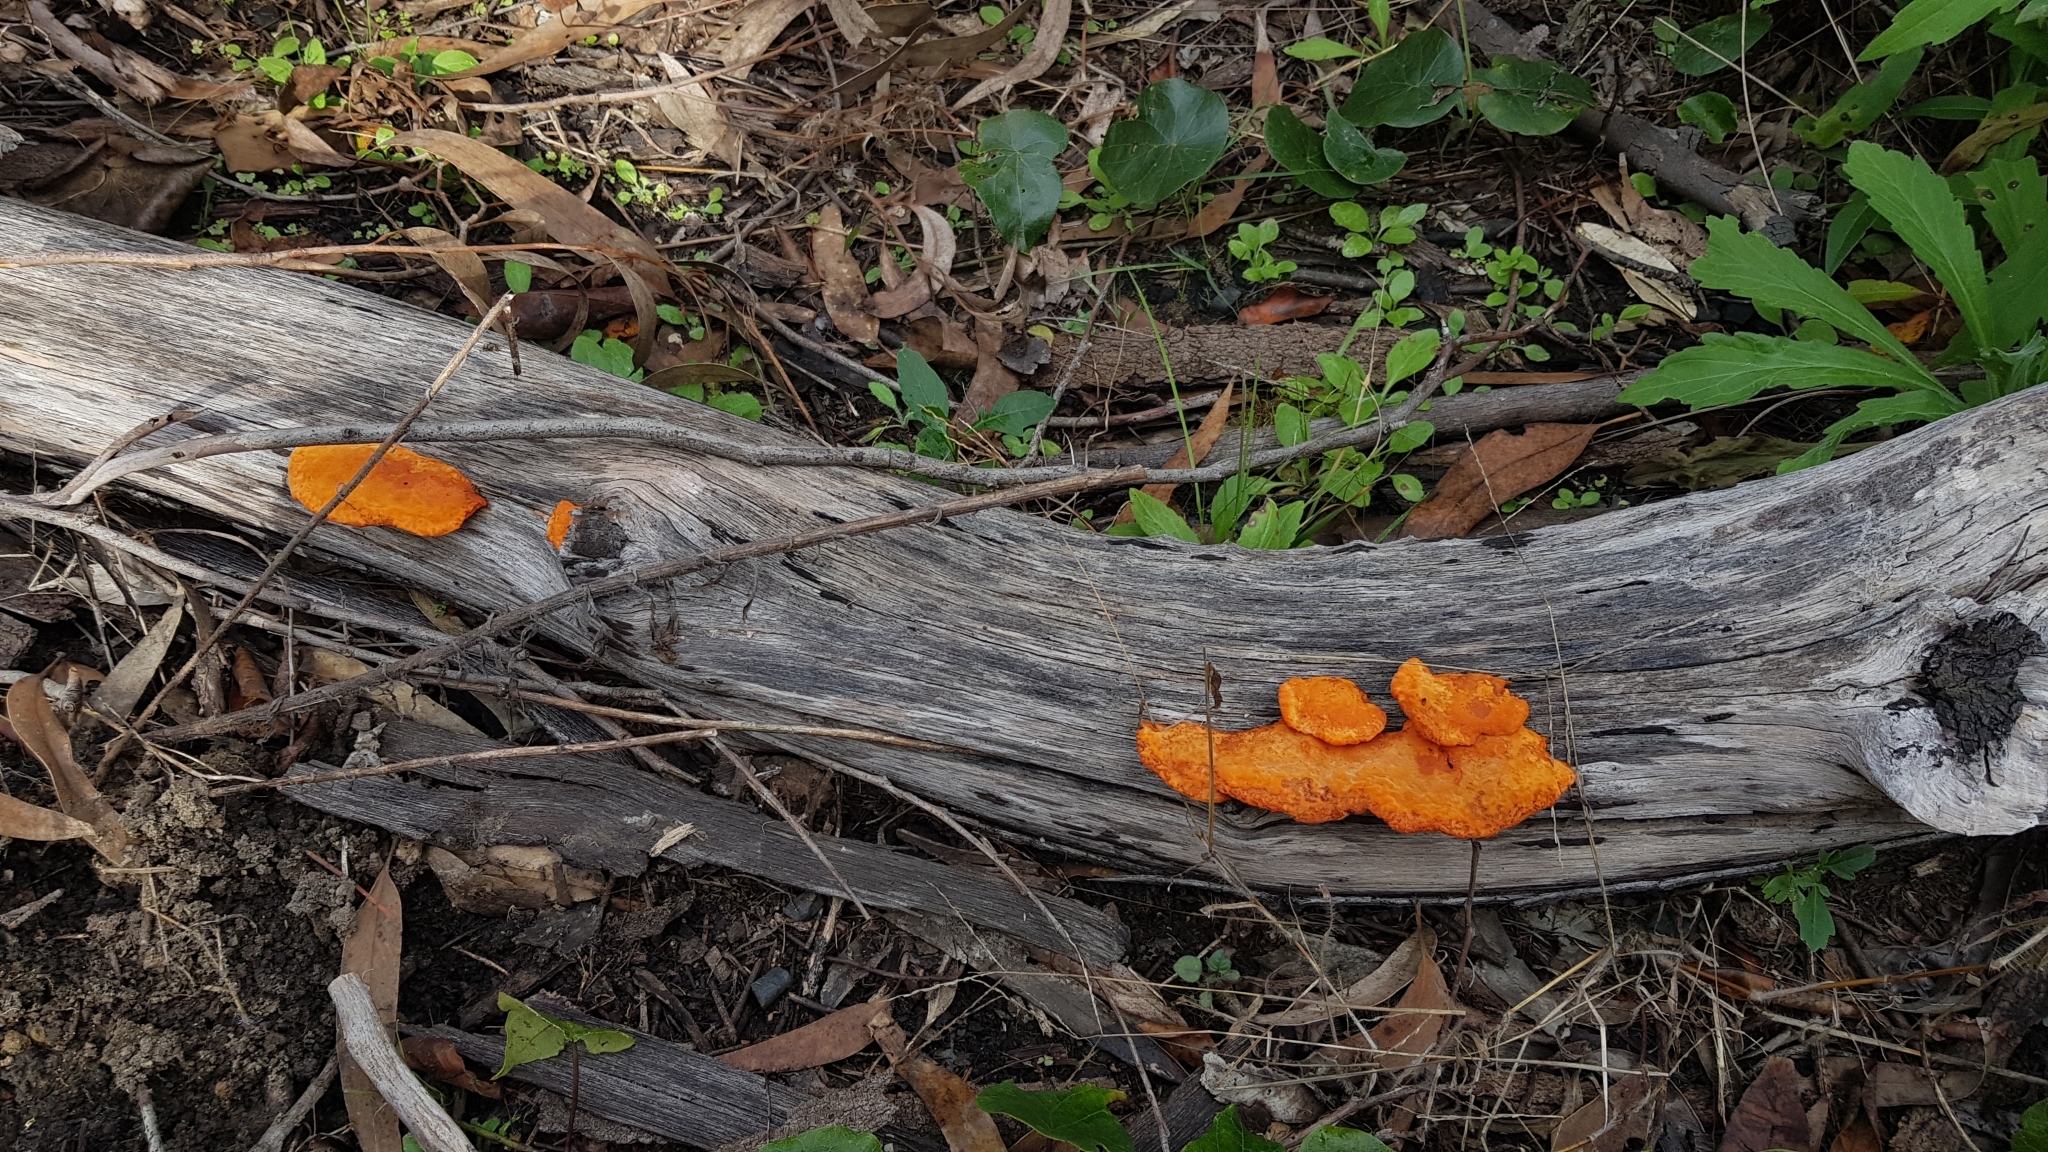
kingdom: Fungi
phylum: Basidiomycota
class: Agaricomycetes
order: Polyporales
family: Polyporaceae
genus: Trametes
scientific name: Trametes coccinea
